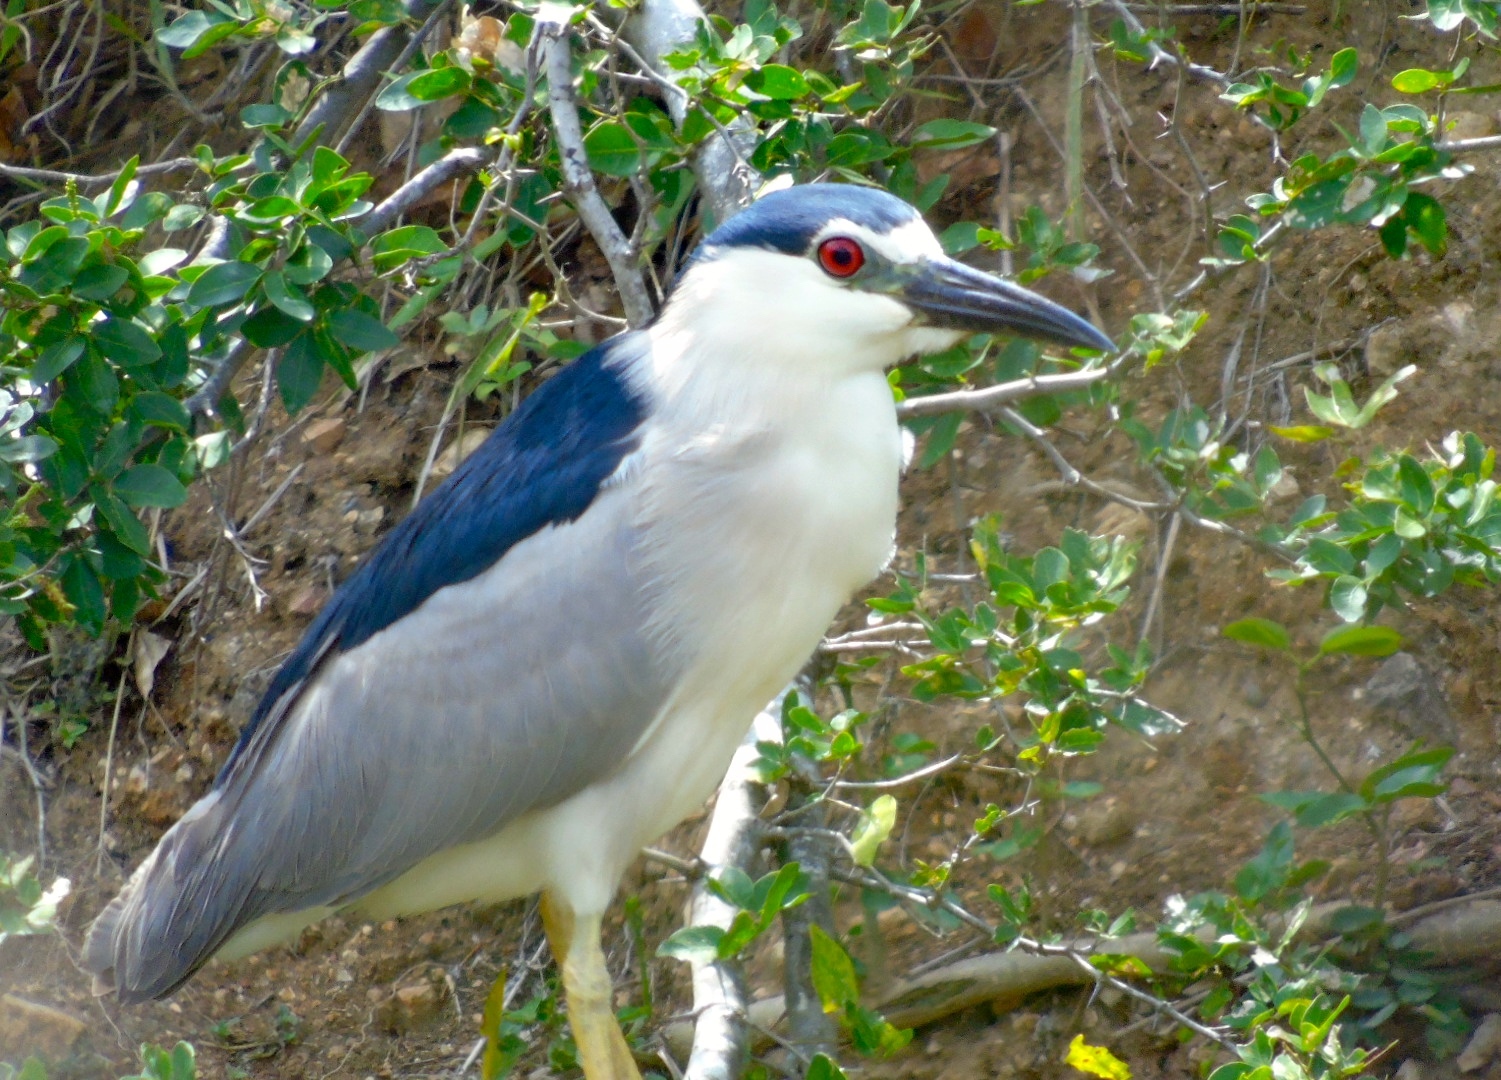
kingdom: Animalia
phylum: Chordata
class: Aves
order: Pelecaniformes
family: Ardeidae
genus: Nycticorax
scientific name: Nycticorax nycticorax
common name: Black-crowned night heron
